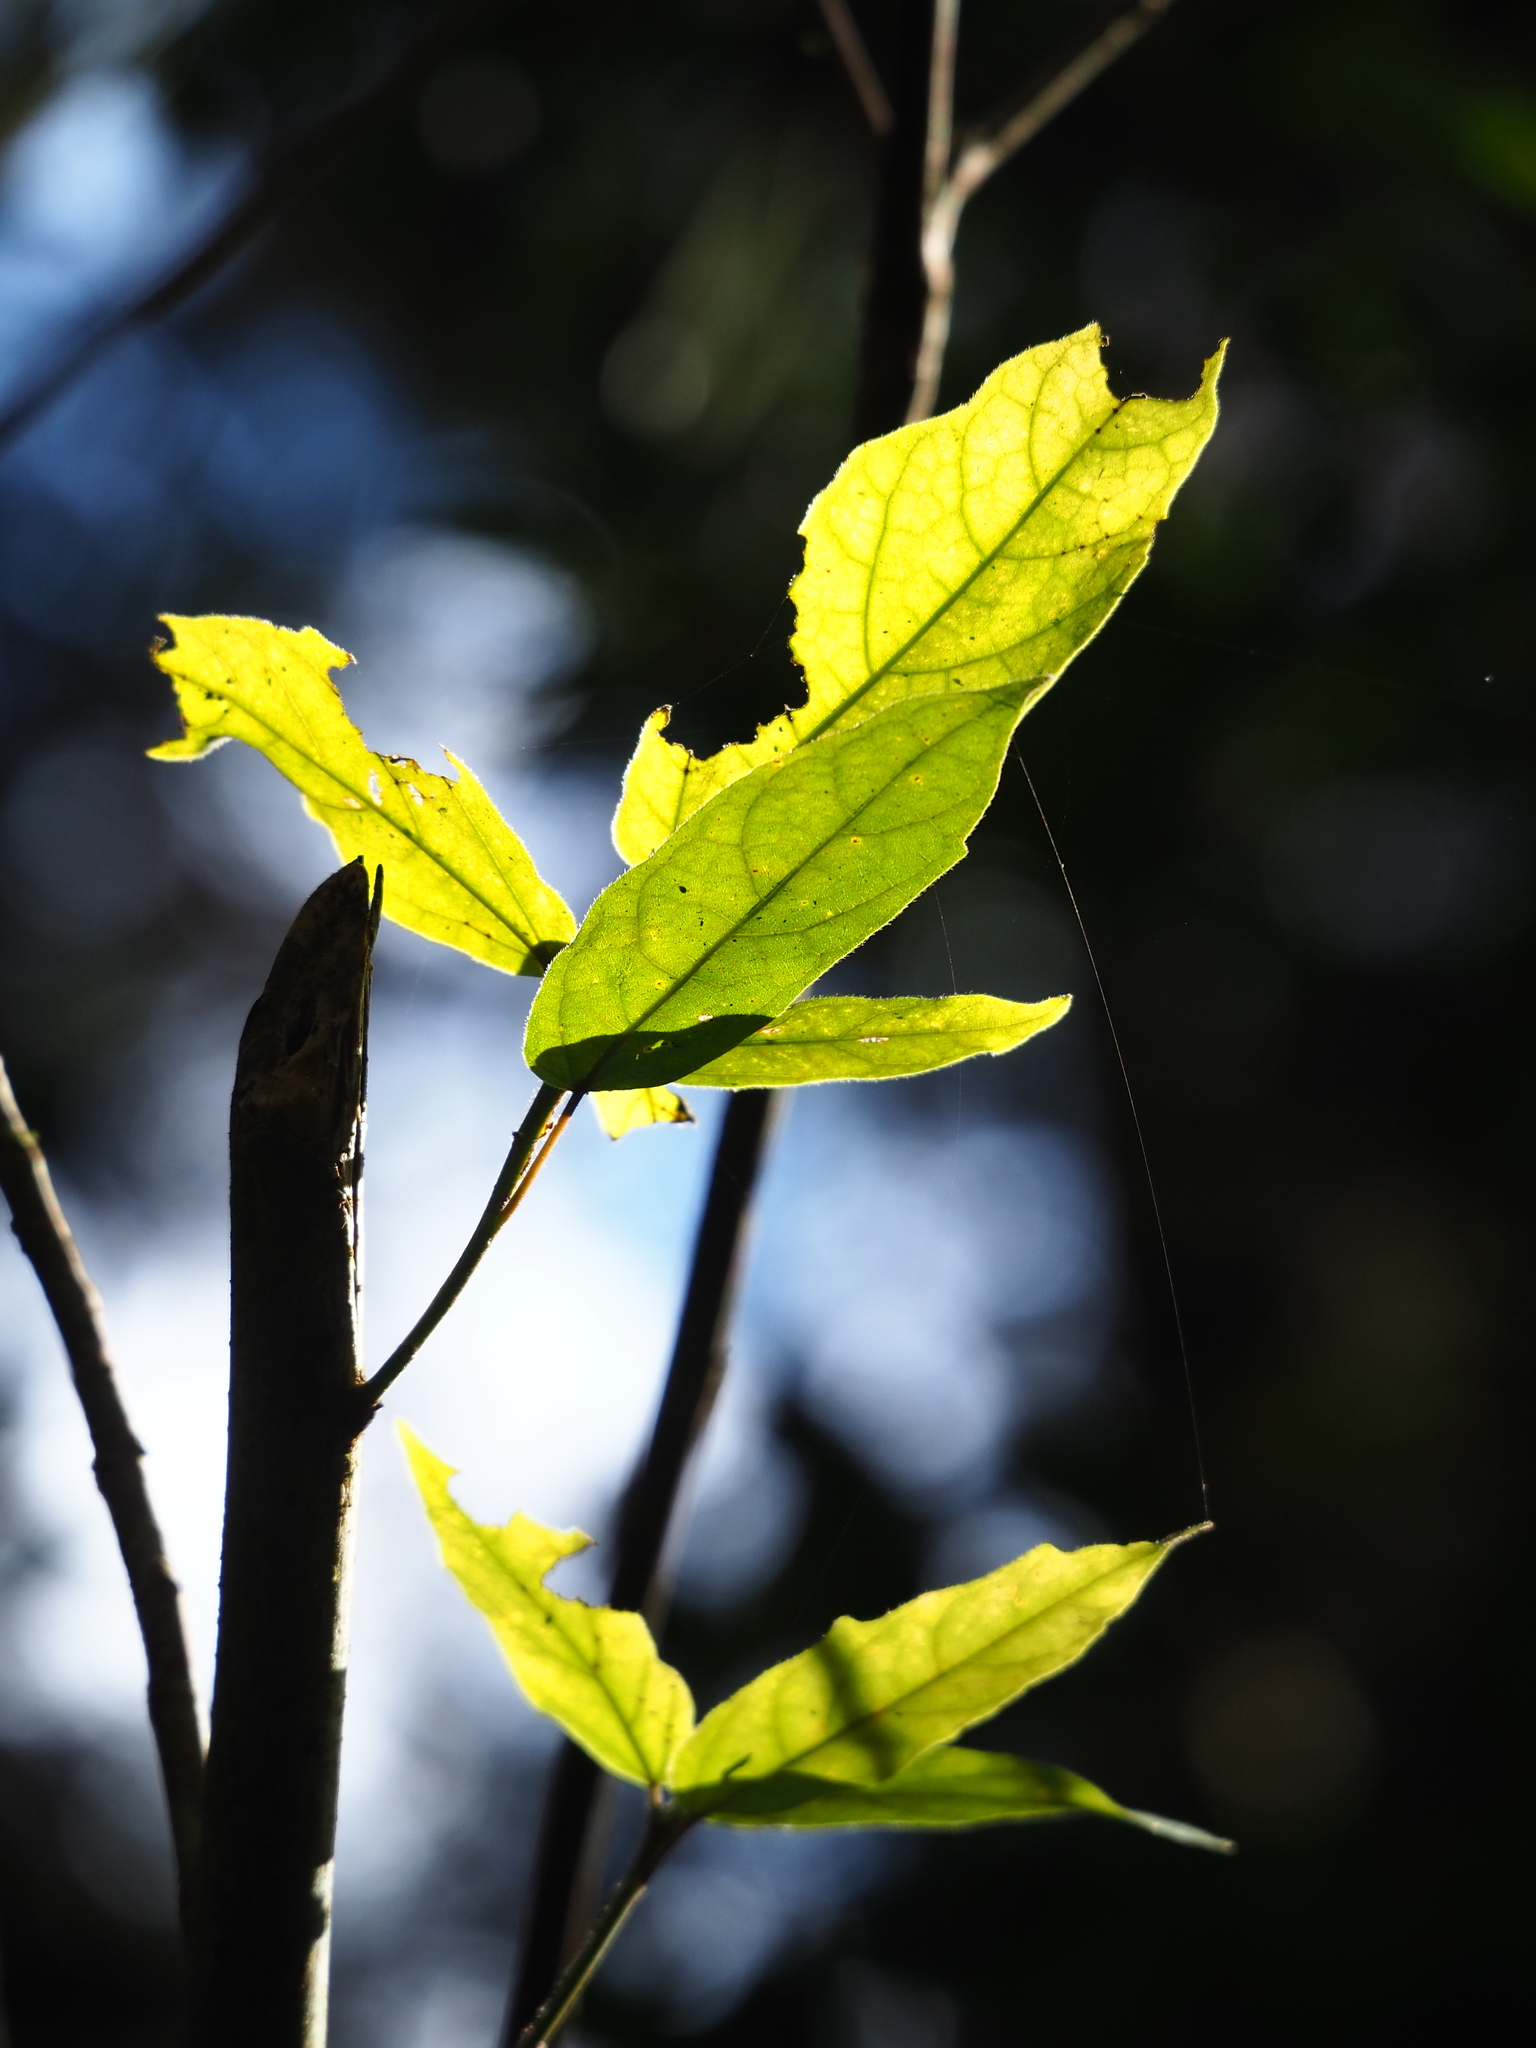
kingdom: Plantae
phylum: Tracheophyta
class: Magnoliopsida
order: Rosales
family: Moraceae
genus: Ficus
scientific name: Ficus erecta
